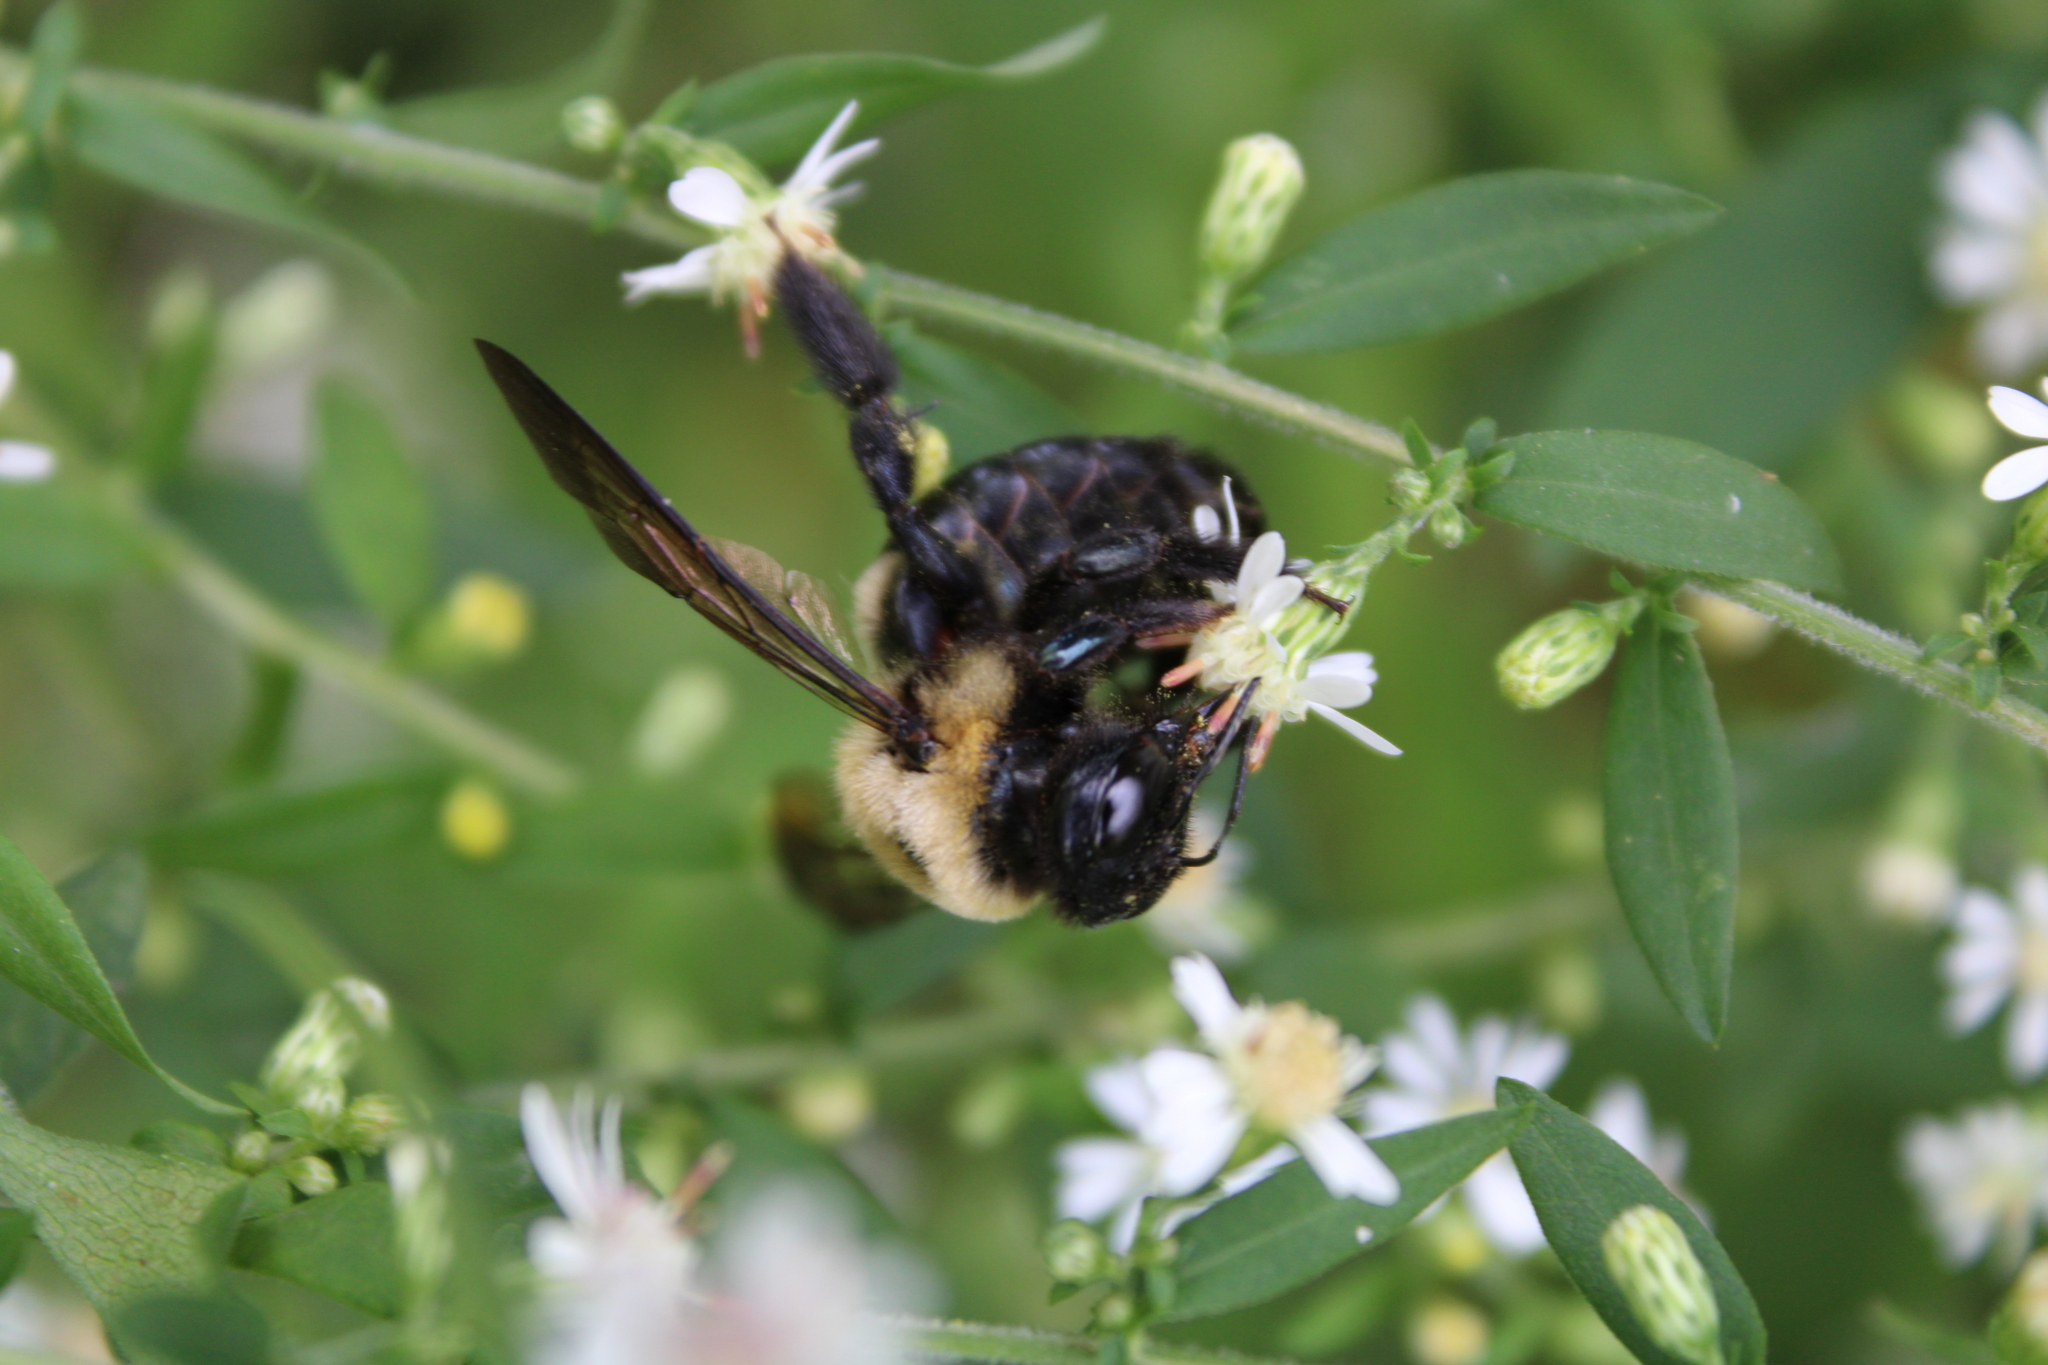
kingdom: Animalia
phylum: Arthropoda
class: Insecta
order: Hymenoptera
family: Apidae
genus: Xylocopa
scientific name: Xylocopa virginica
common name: Carpenter bee
